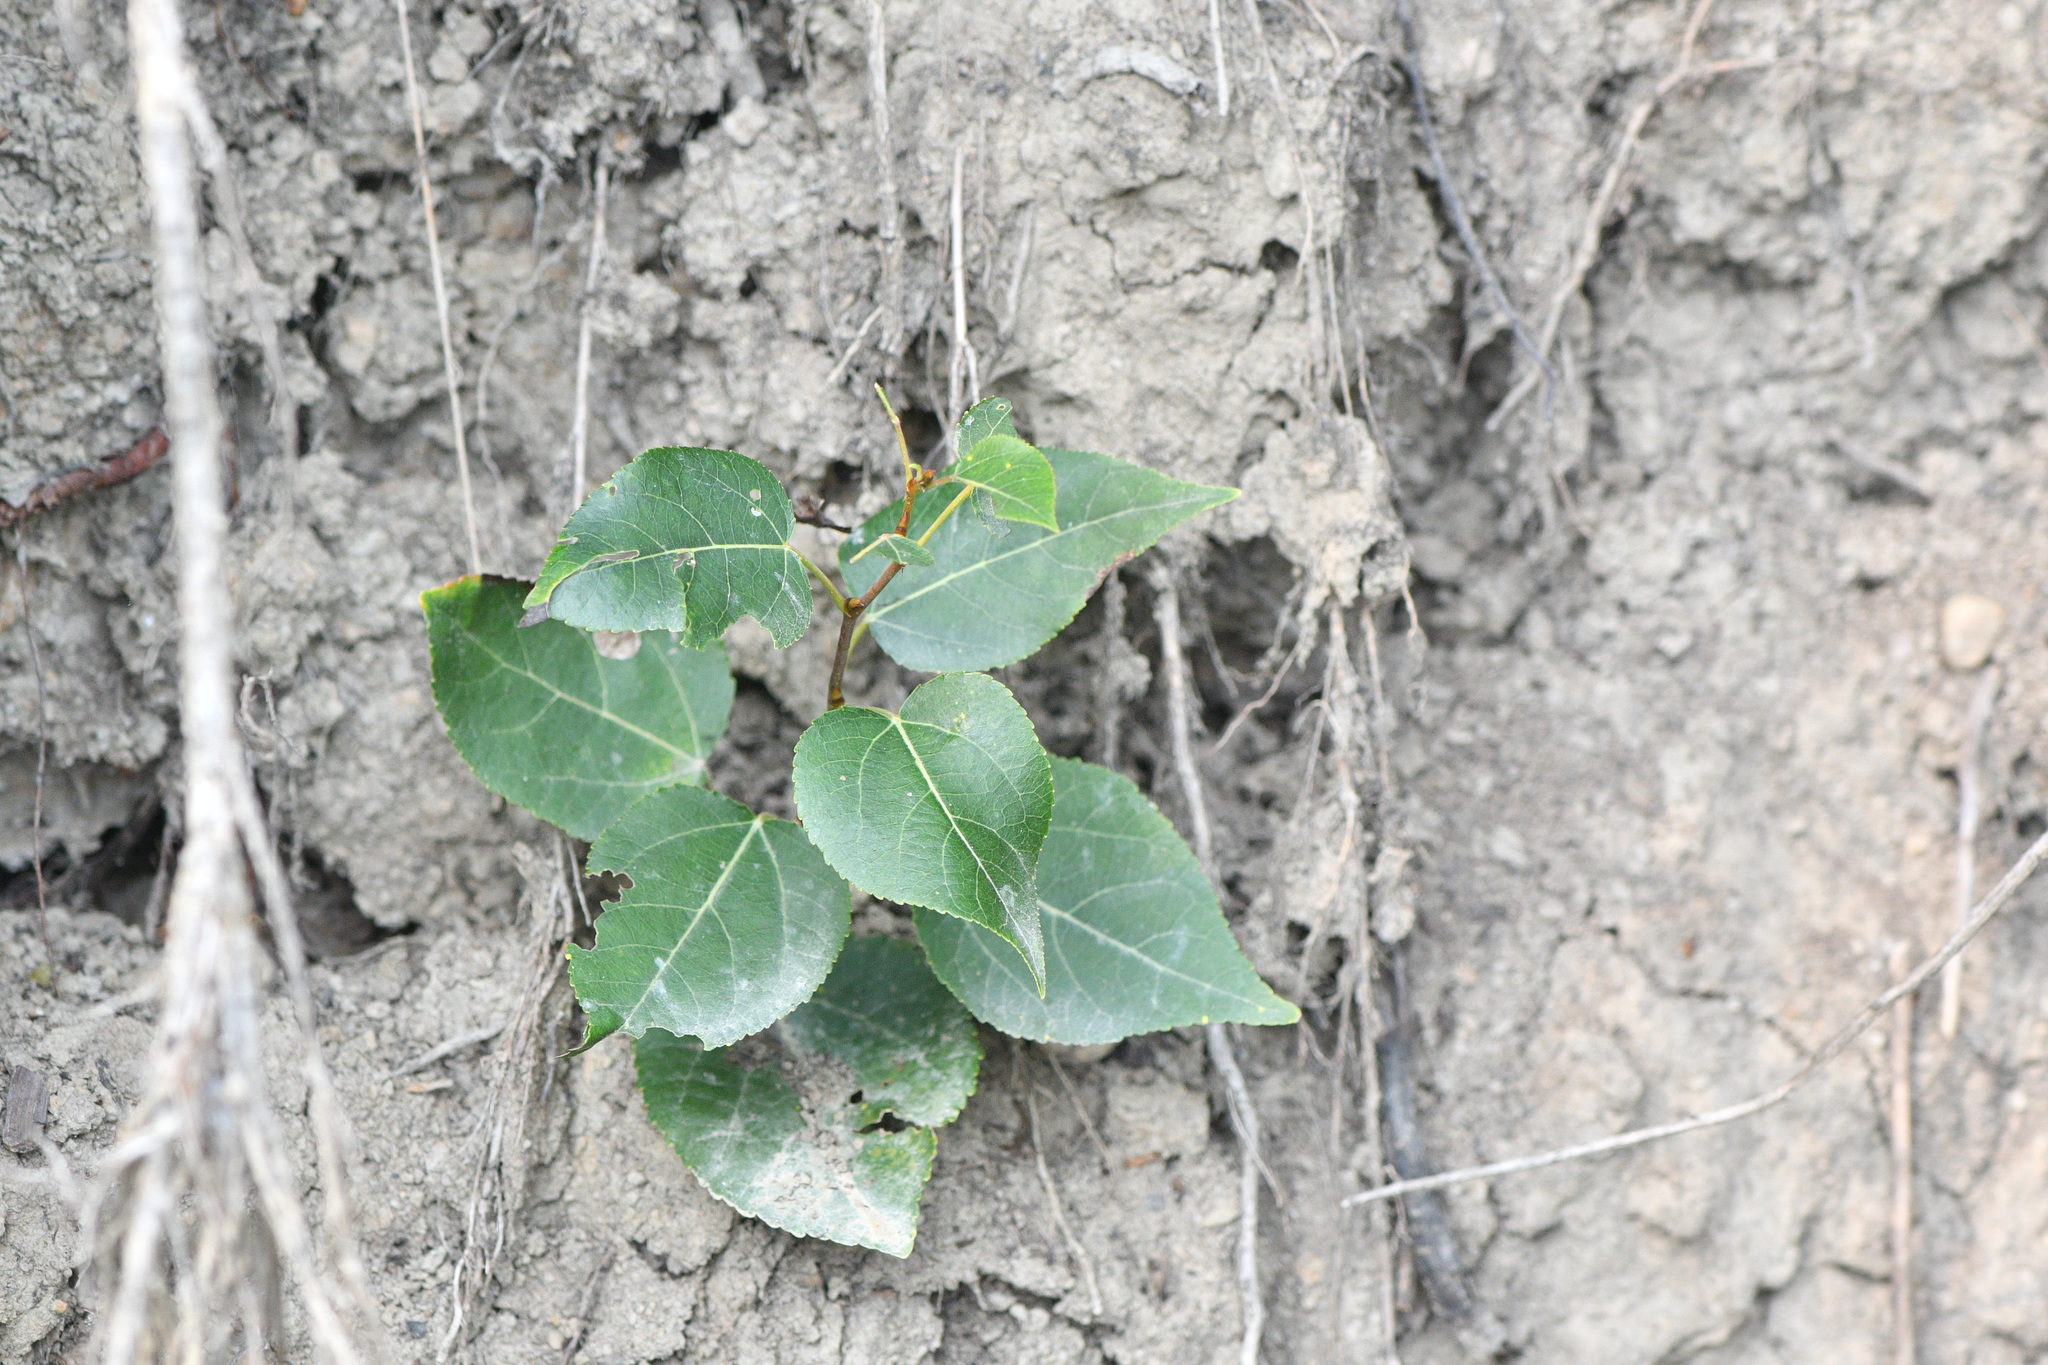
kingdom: Plantae
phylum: Tracheophyta
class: Magnoliopsida
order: Malpighiales
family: Salicaceae
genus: Populus
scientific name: Populus balsamifera
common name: Balsam poplar
